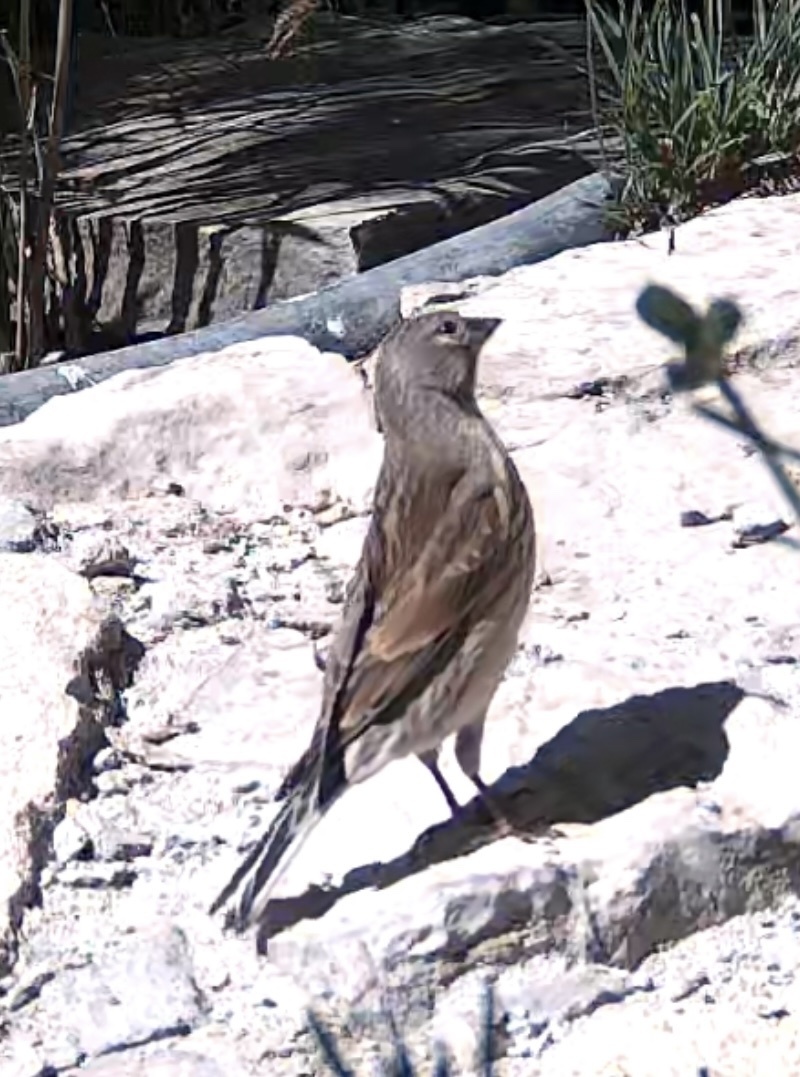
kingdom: Animalia
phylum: Chordata
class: Aves
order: Passeriformes
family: Fringillidae
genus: Linaria
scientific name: Linaria cannabina
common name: Common linnet
